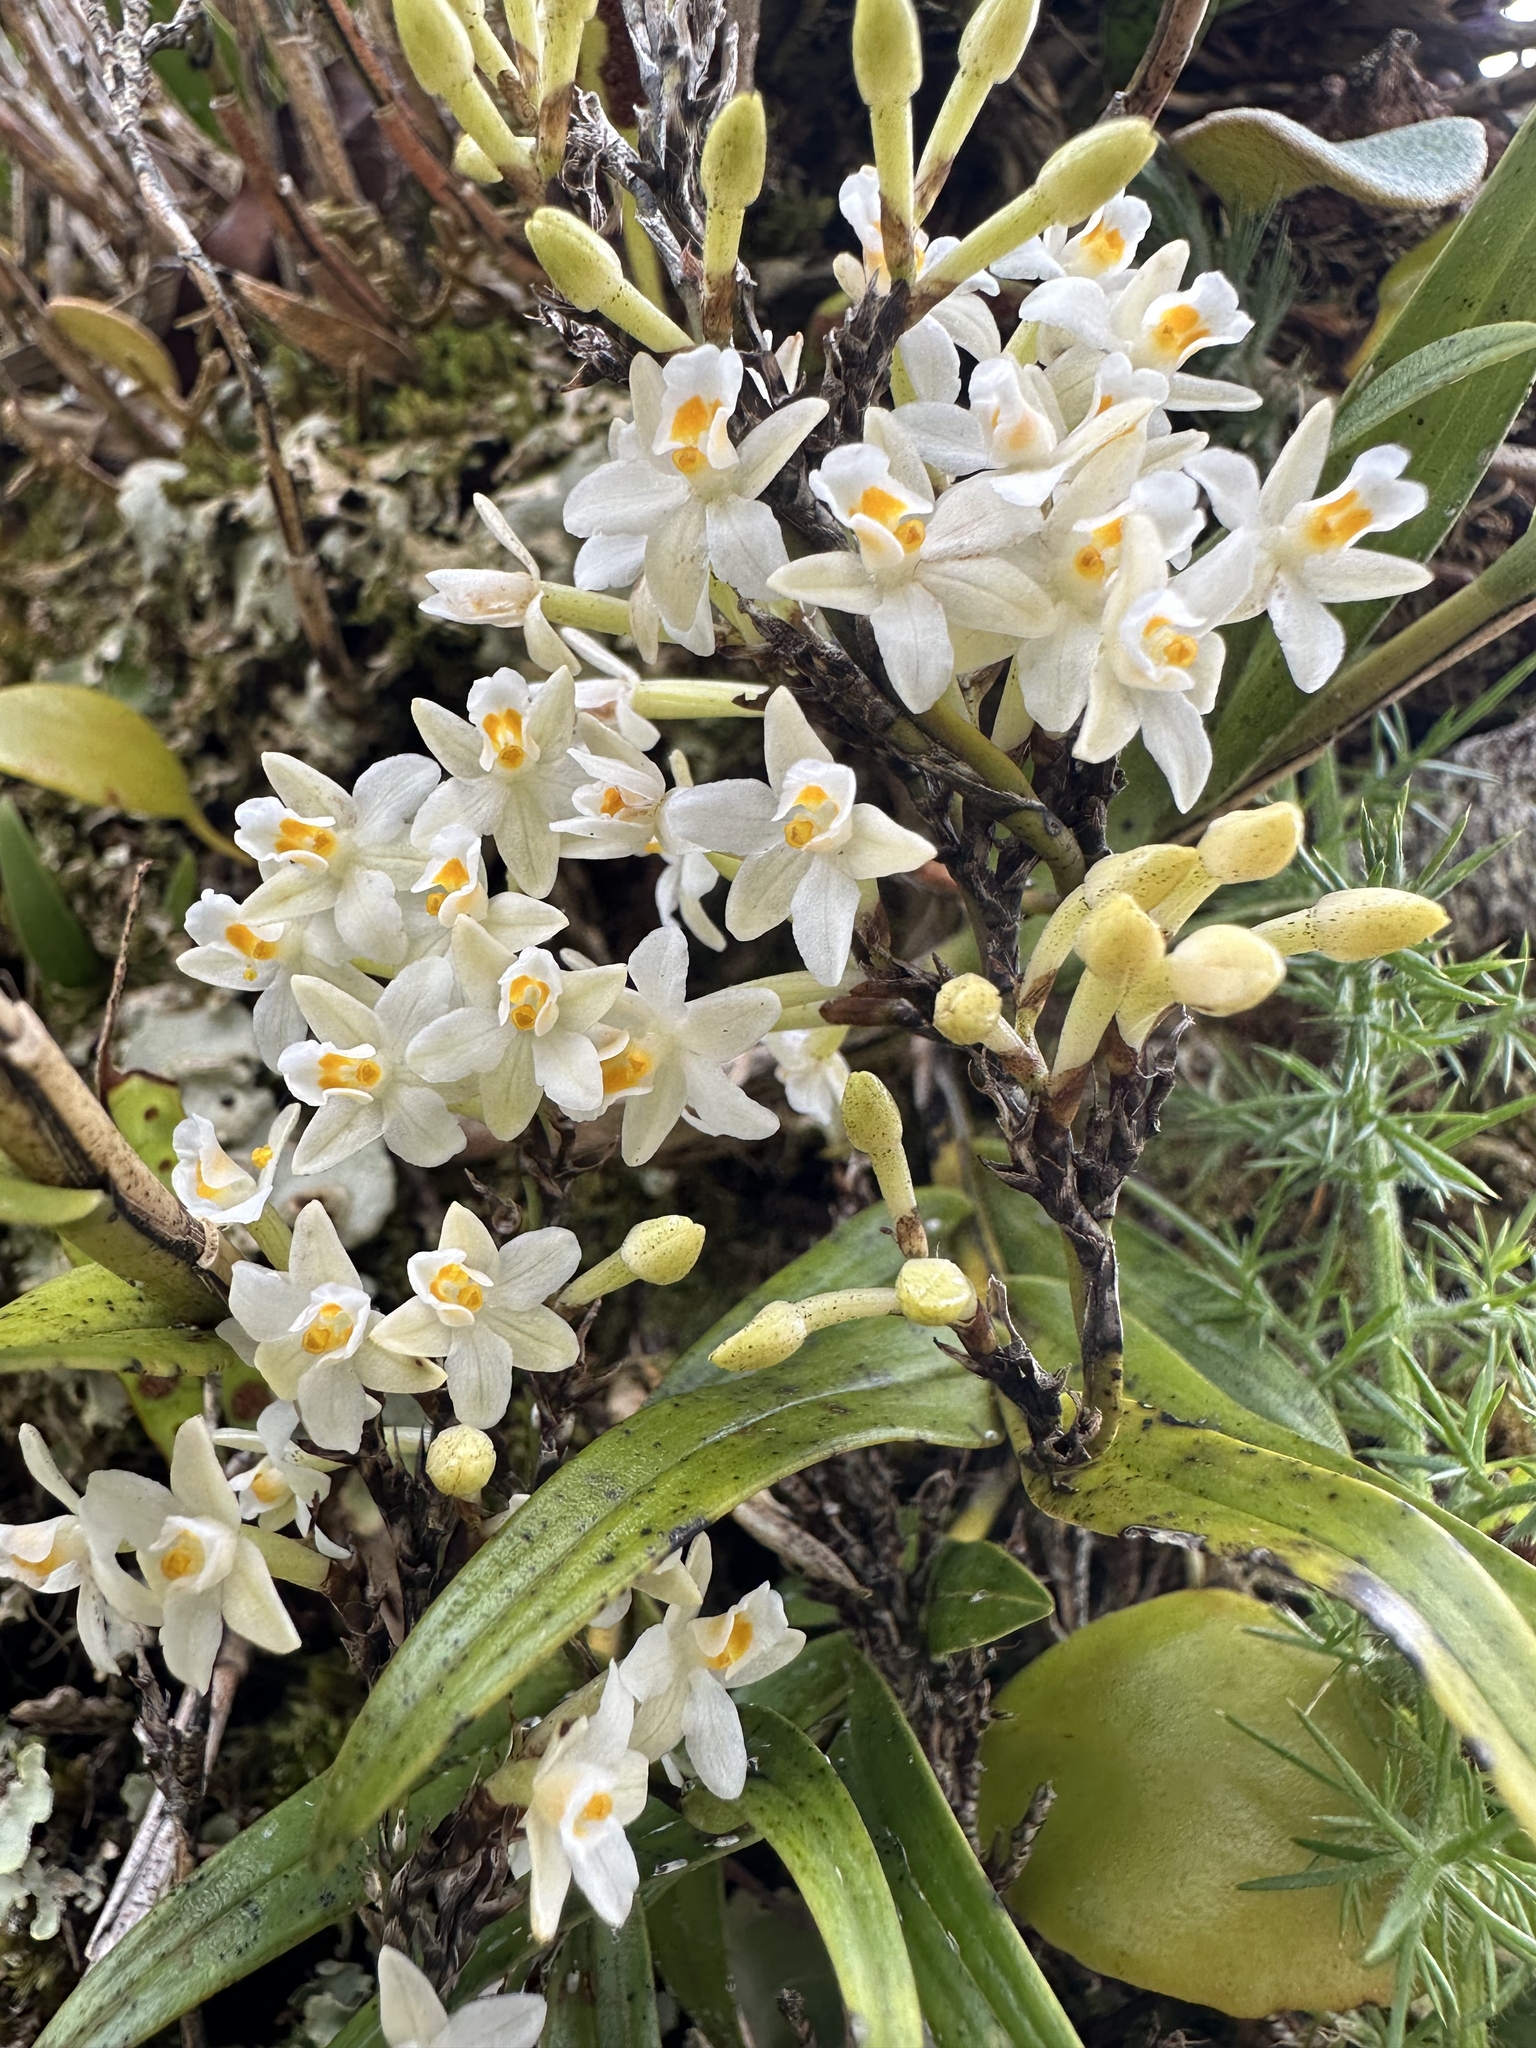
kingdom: Plantae
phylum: Tracheophyta
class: Liliopsida
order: Asparagales
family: Orchidaceae
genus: Earina
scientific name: Earina autumnalis
